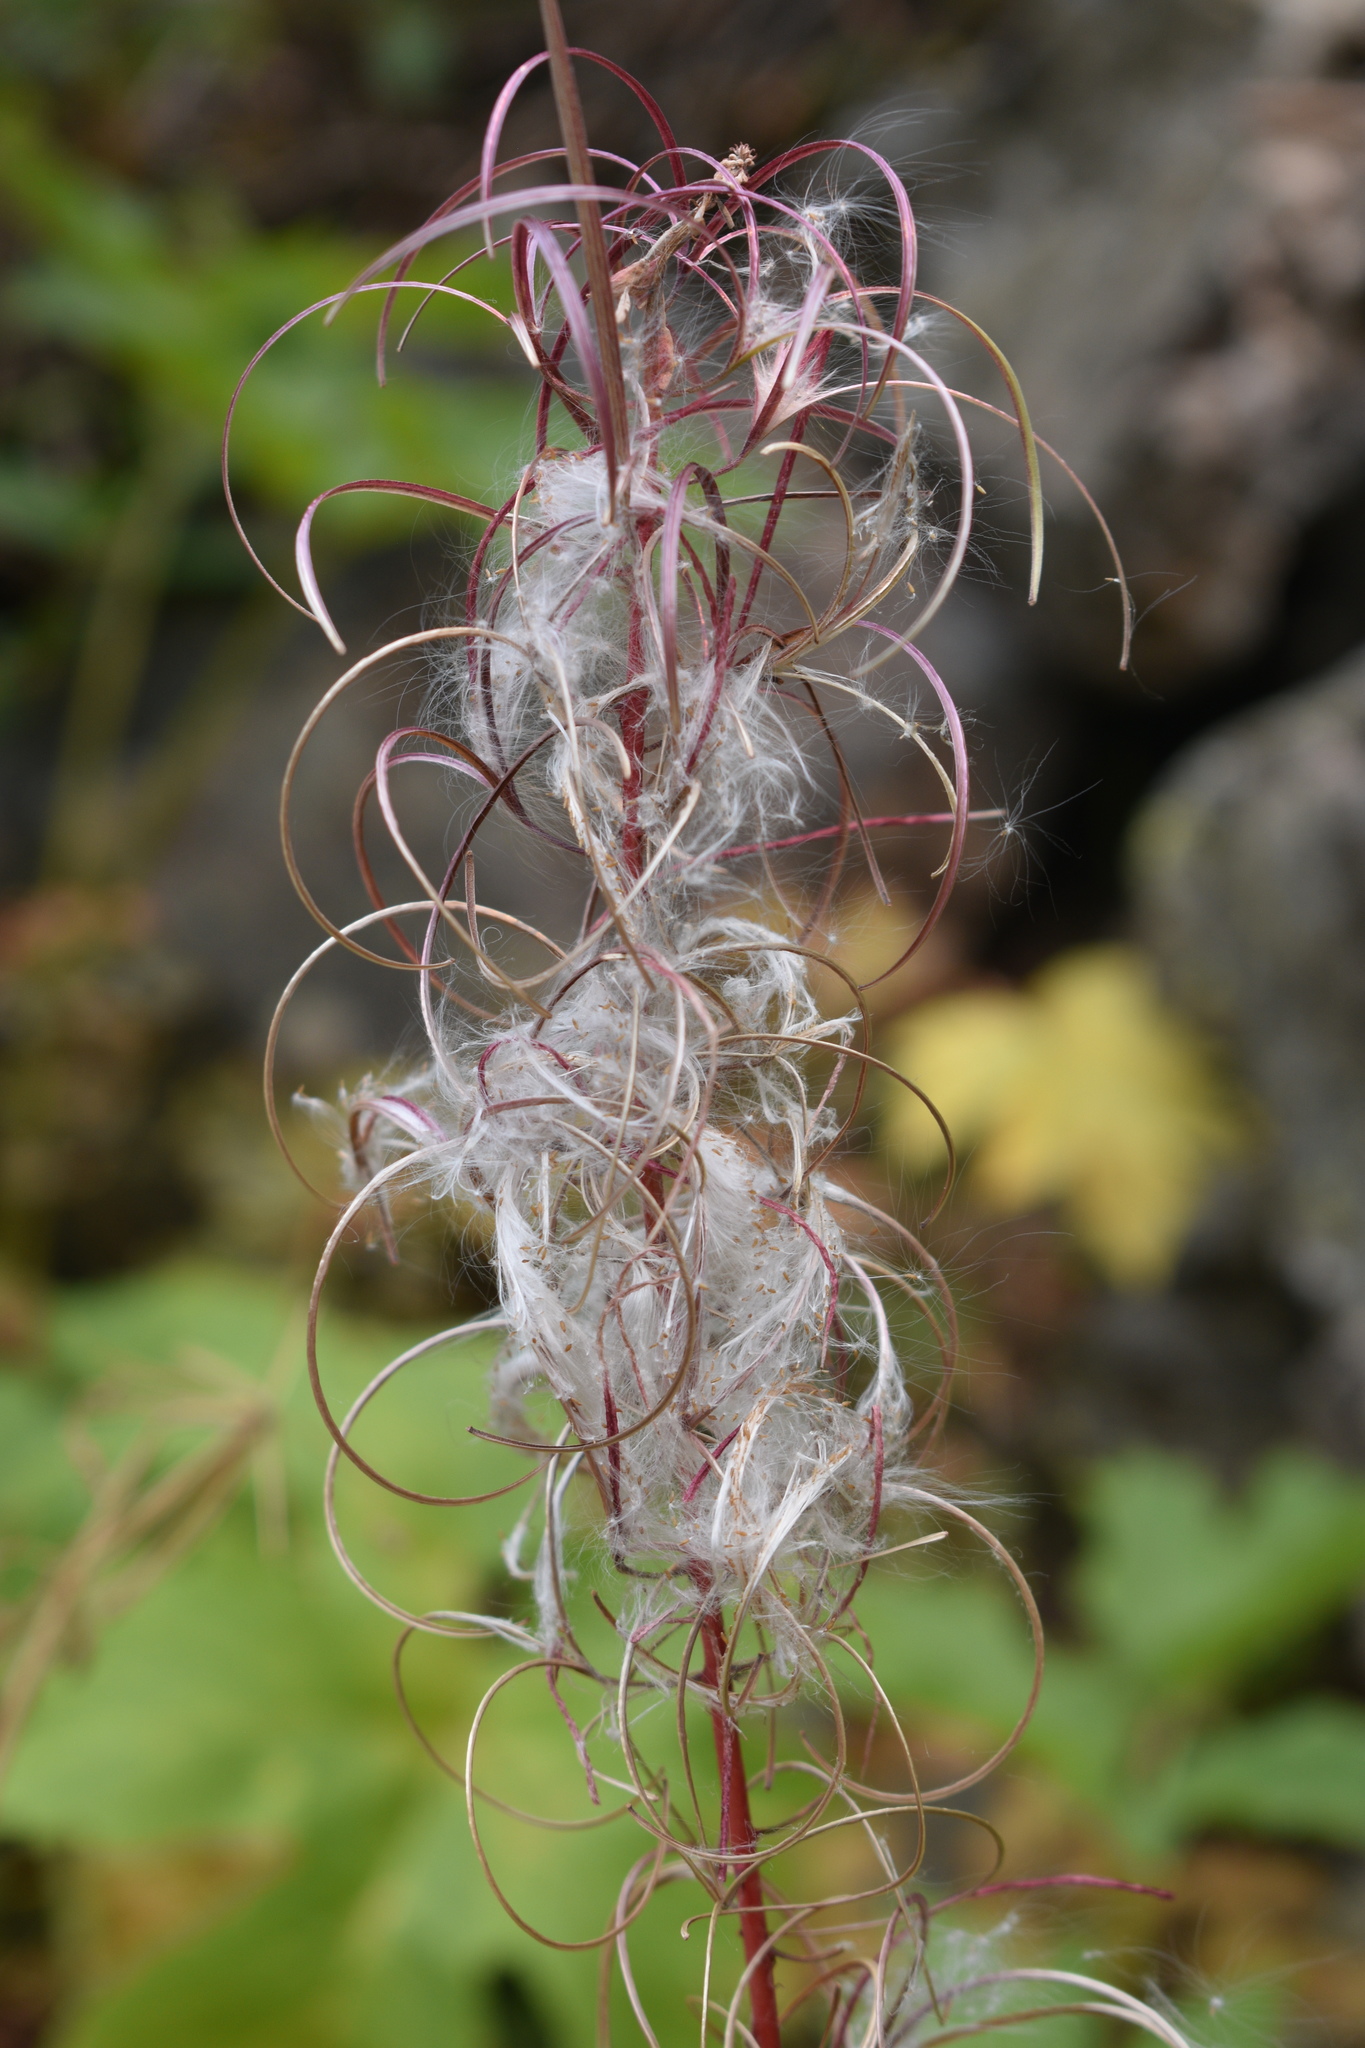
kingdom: Plantae
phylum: Tracheophyta
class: Magnoliopsida
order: Myrtales
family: Onagraceae
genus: Chamaenerion
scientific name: Chamaenerion angustifolium
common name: Fireweed
